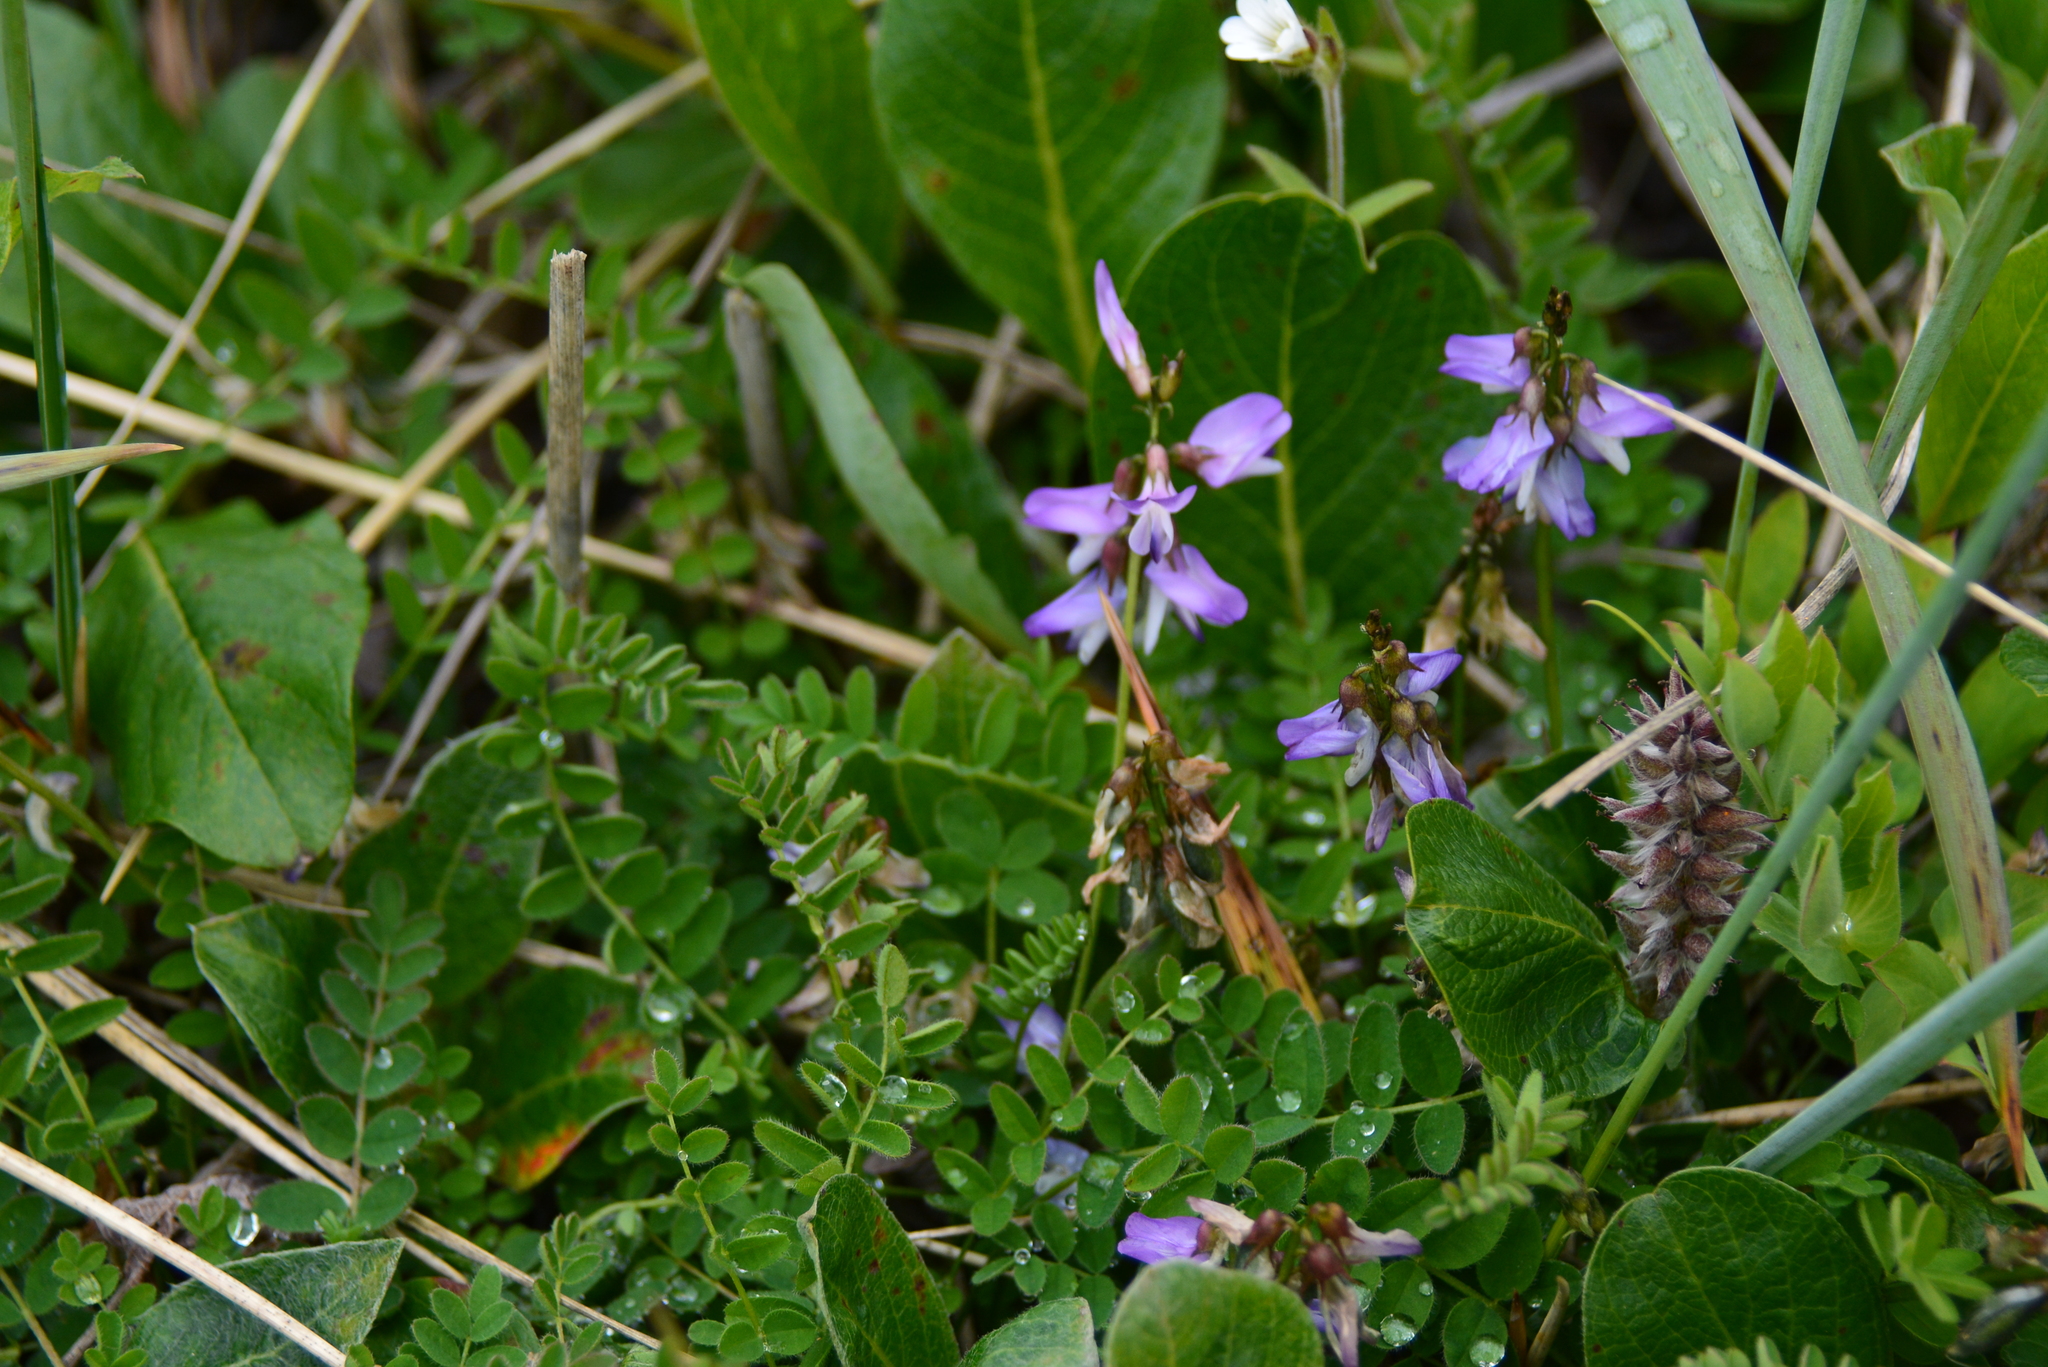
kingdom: Plantae
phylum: Tracheophyta
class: Magnoliopsida
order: Fabales
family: Fabaceae
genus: Astragalus
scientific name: Astragalus alpinus
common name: Alpine milk-vetch
